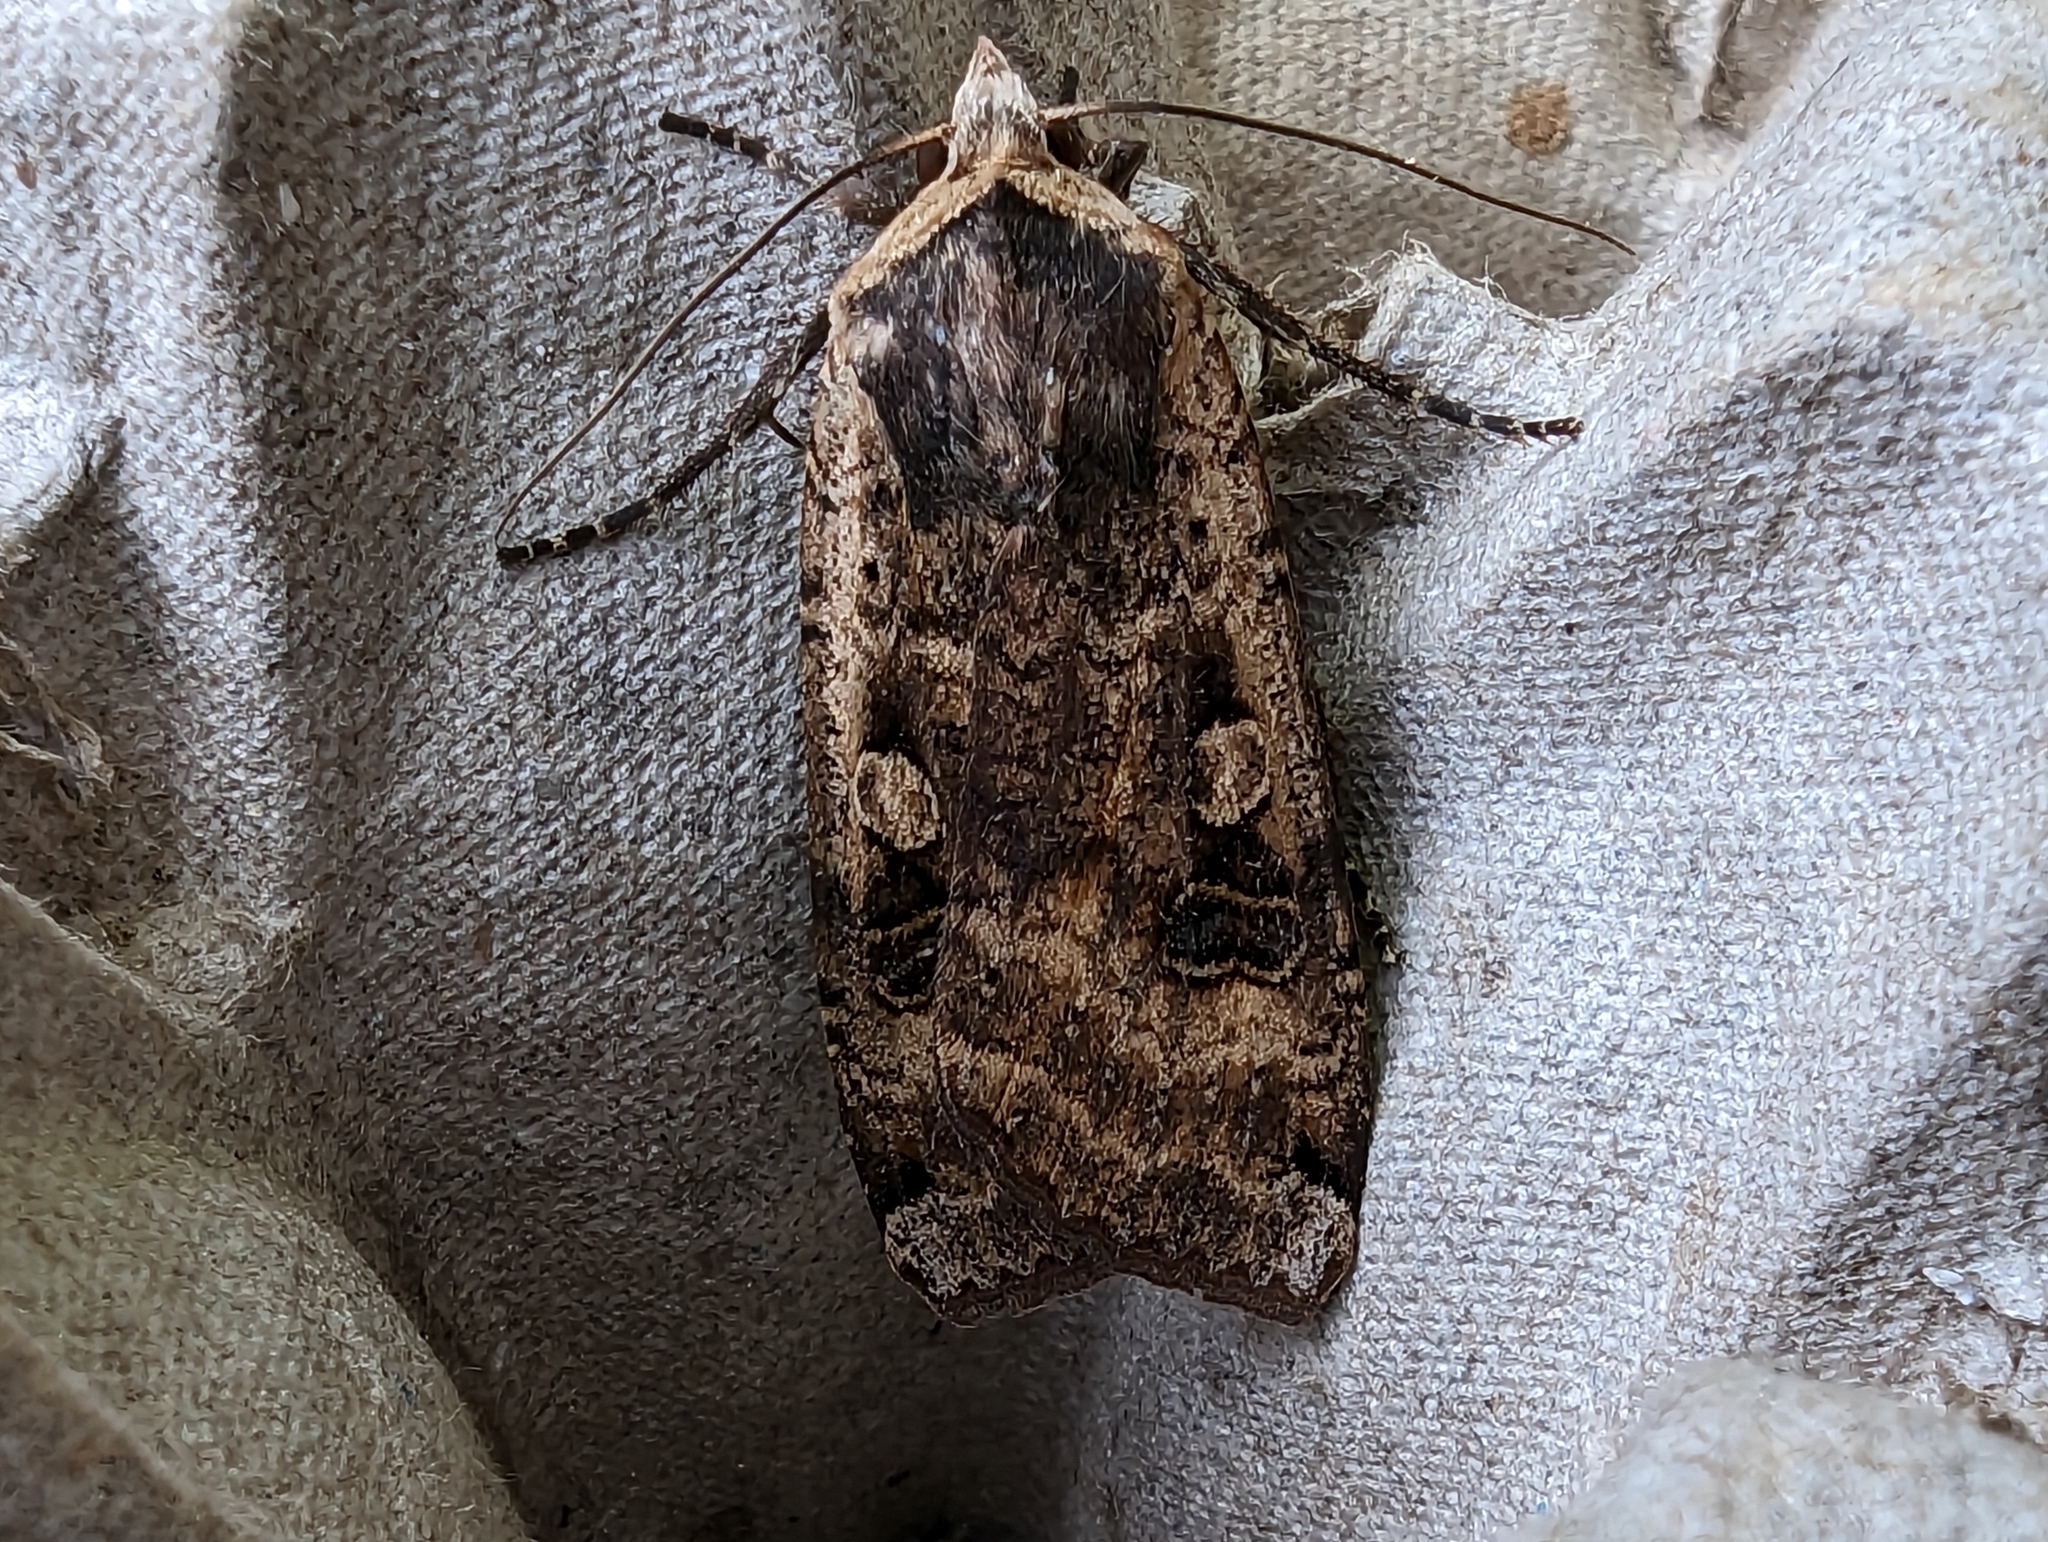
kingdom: Animalia
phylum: Arthropoda
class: Insecta
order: Lepidoptera
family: Noctuidae
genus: Noctua
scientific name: Noctua pronuba
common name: Large yellow underwing
